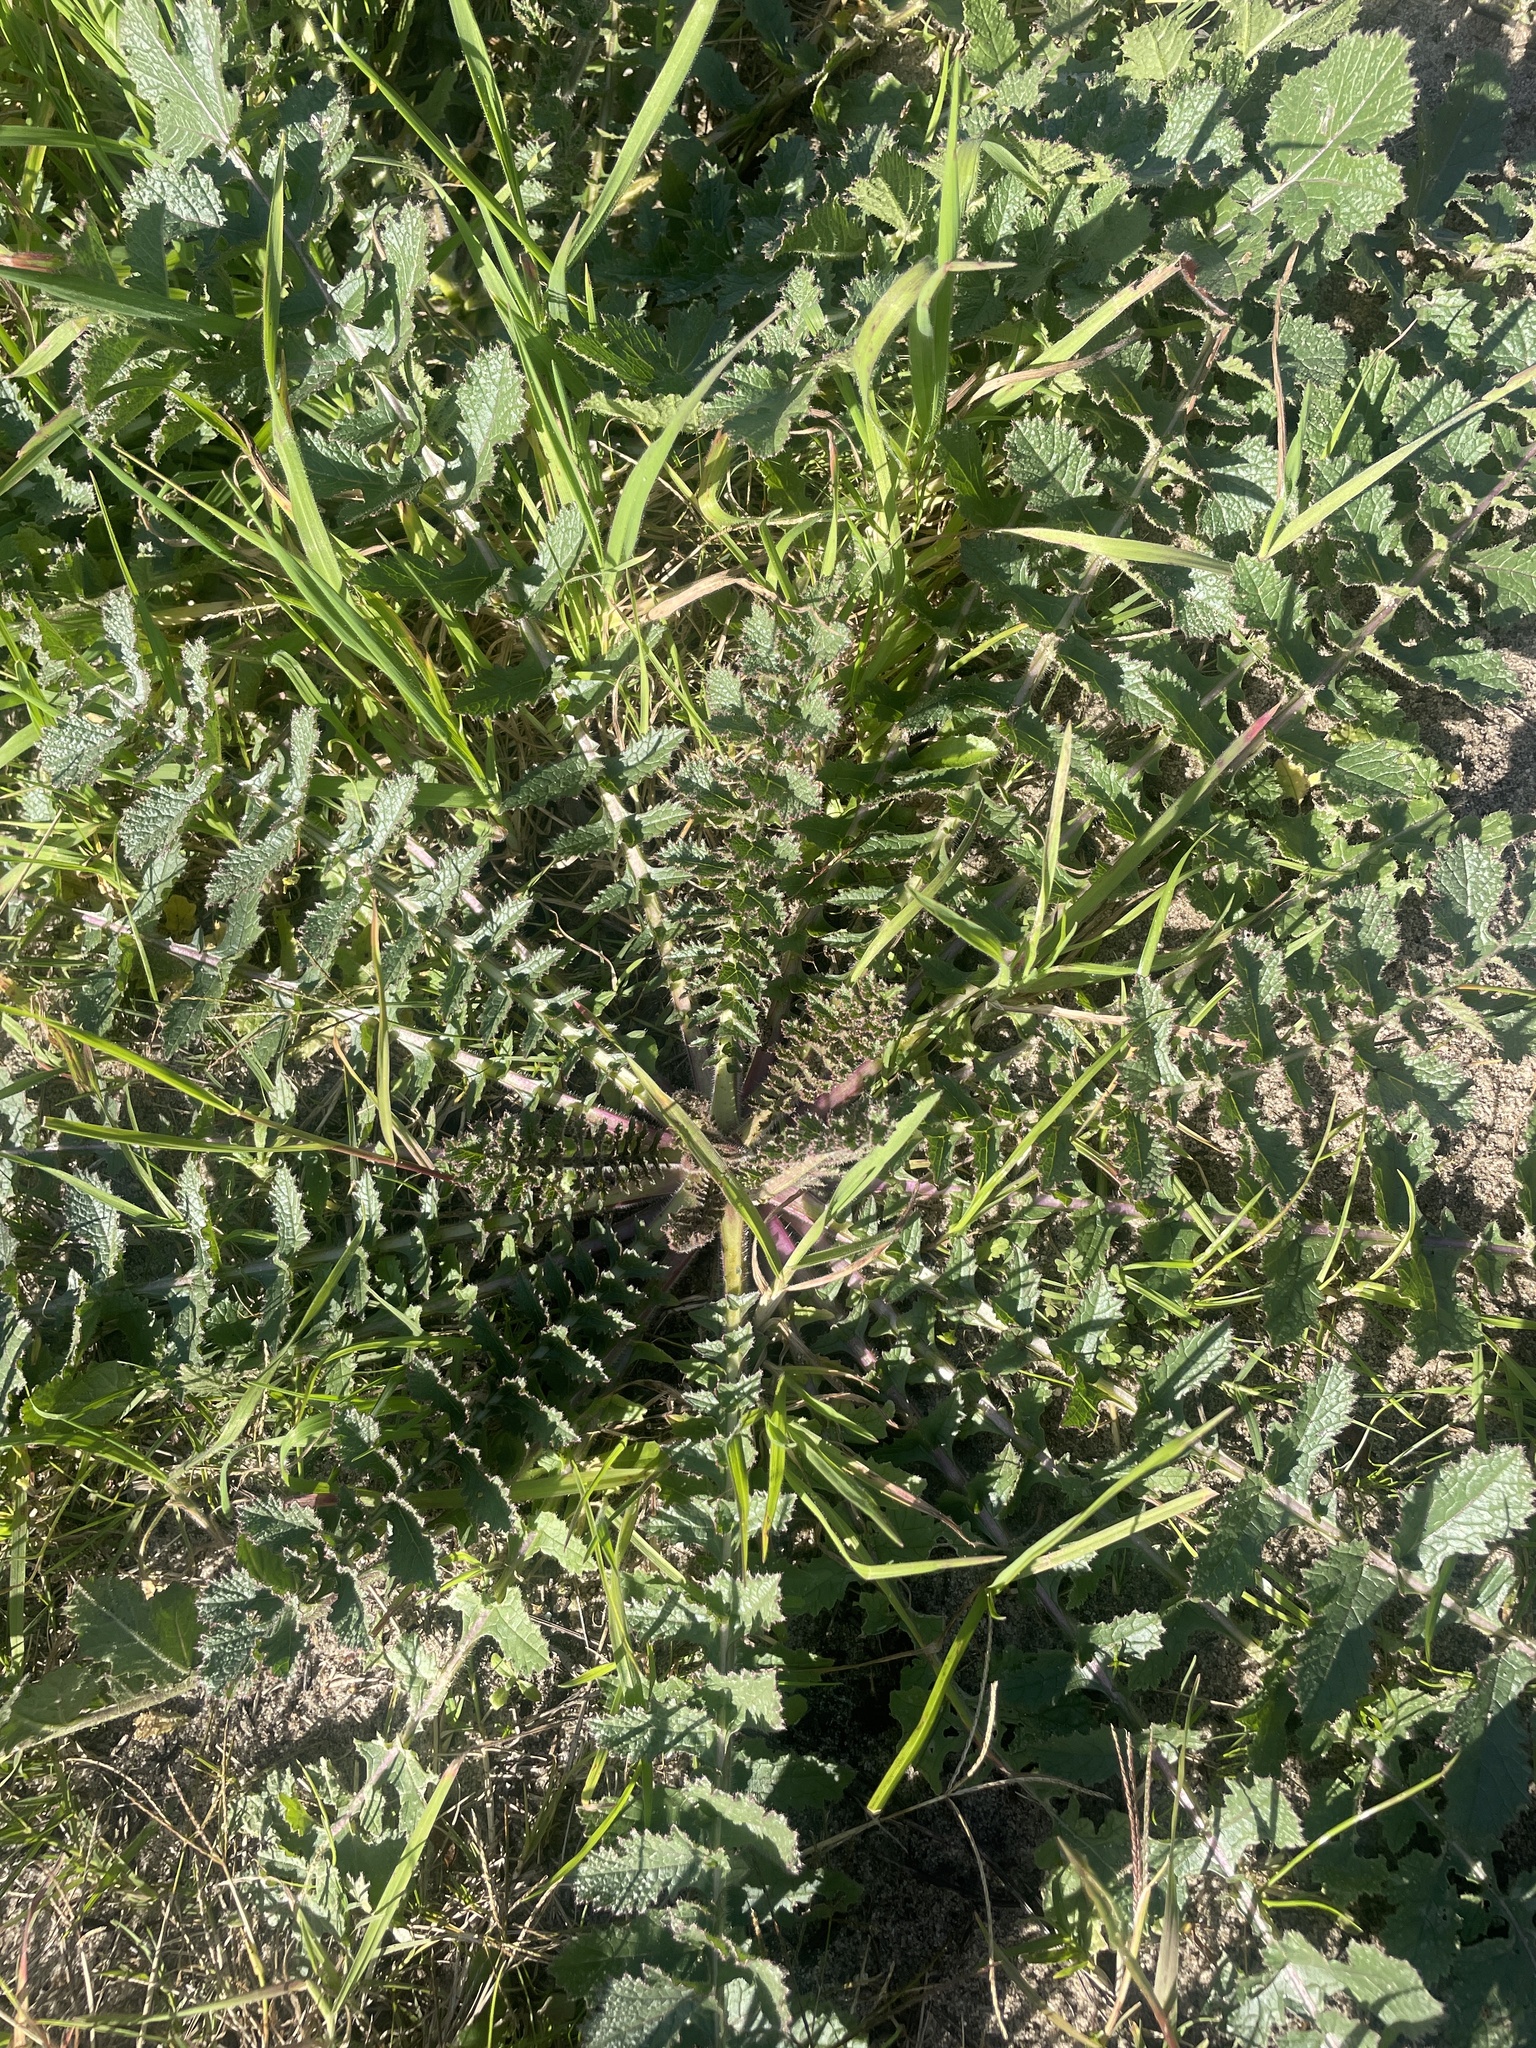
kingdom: Plantae
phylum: Tracheophyta
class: Magnoliopsida
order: Brassicales
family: Brassicaceae
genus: Brassica
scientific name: Brassica tournefortii
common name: Pale cabbage
